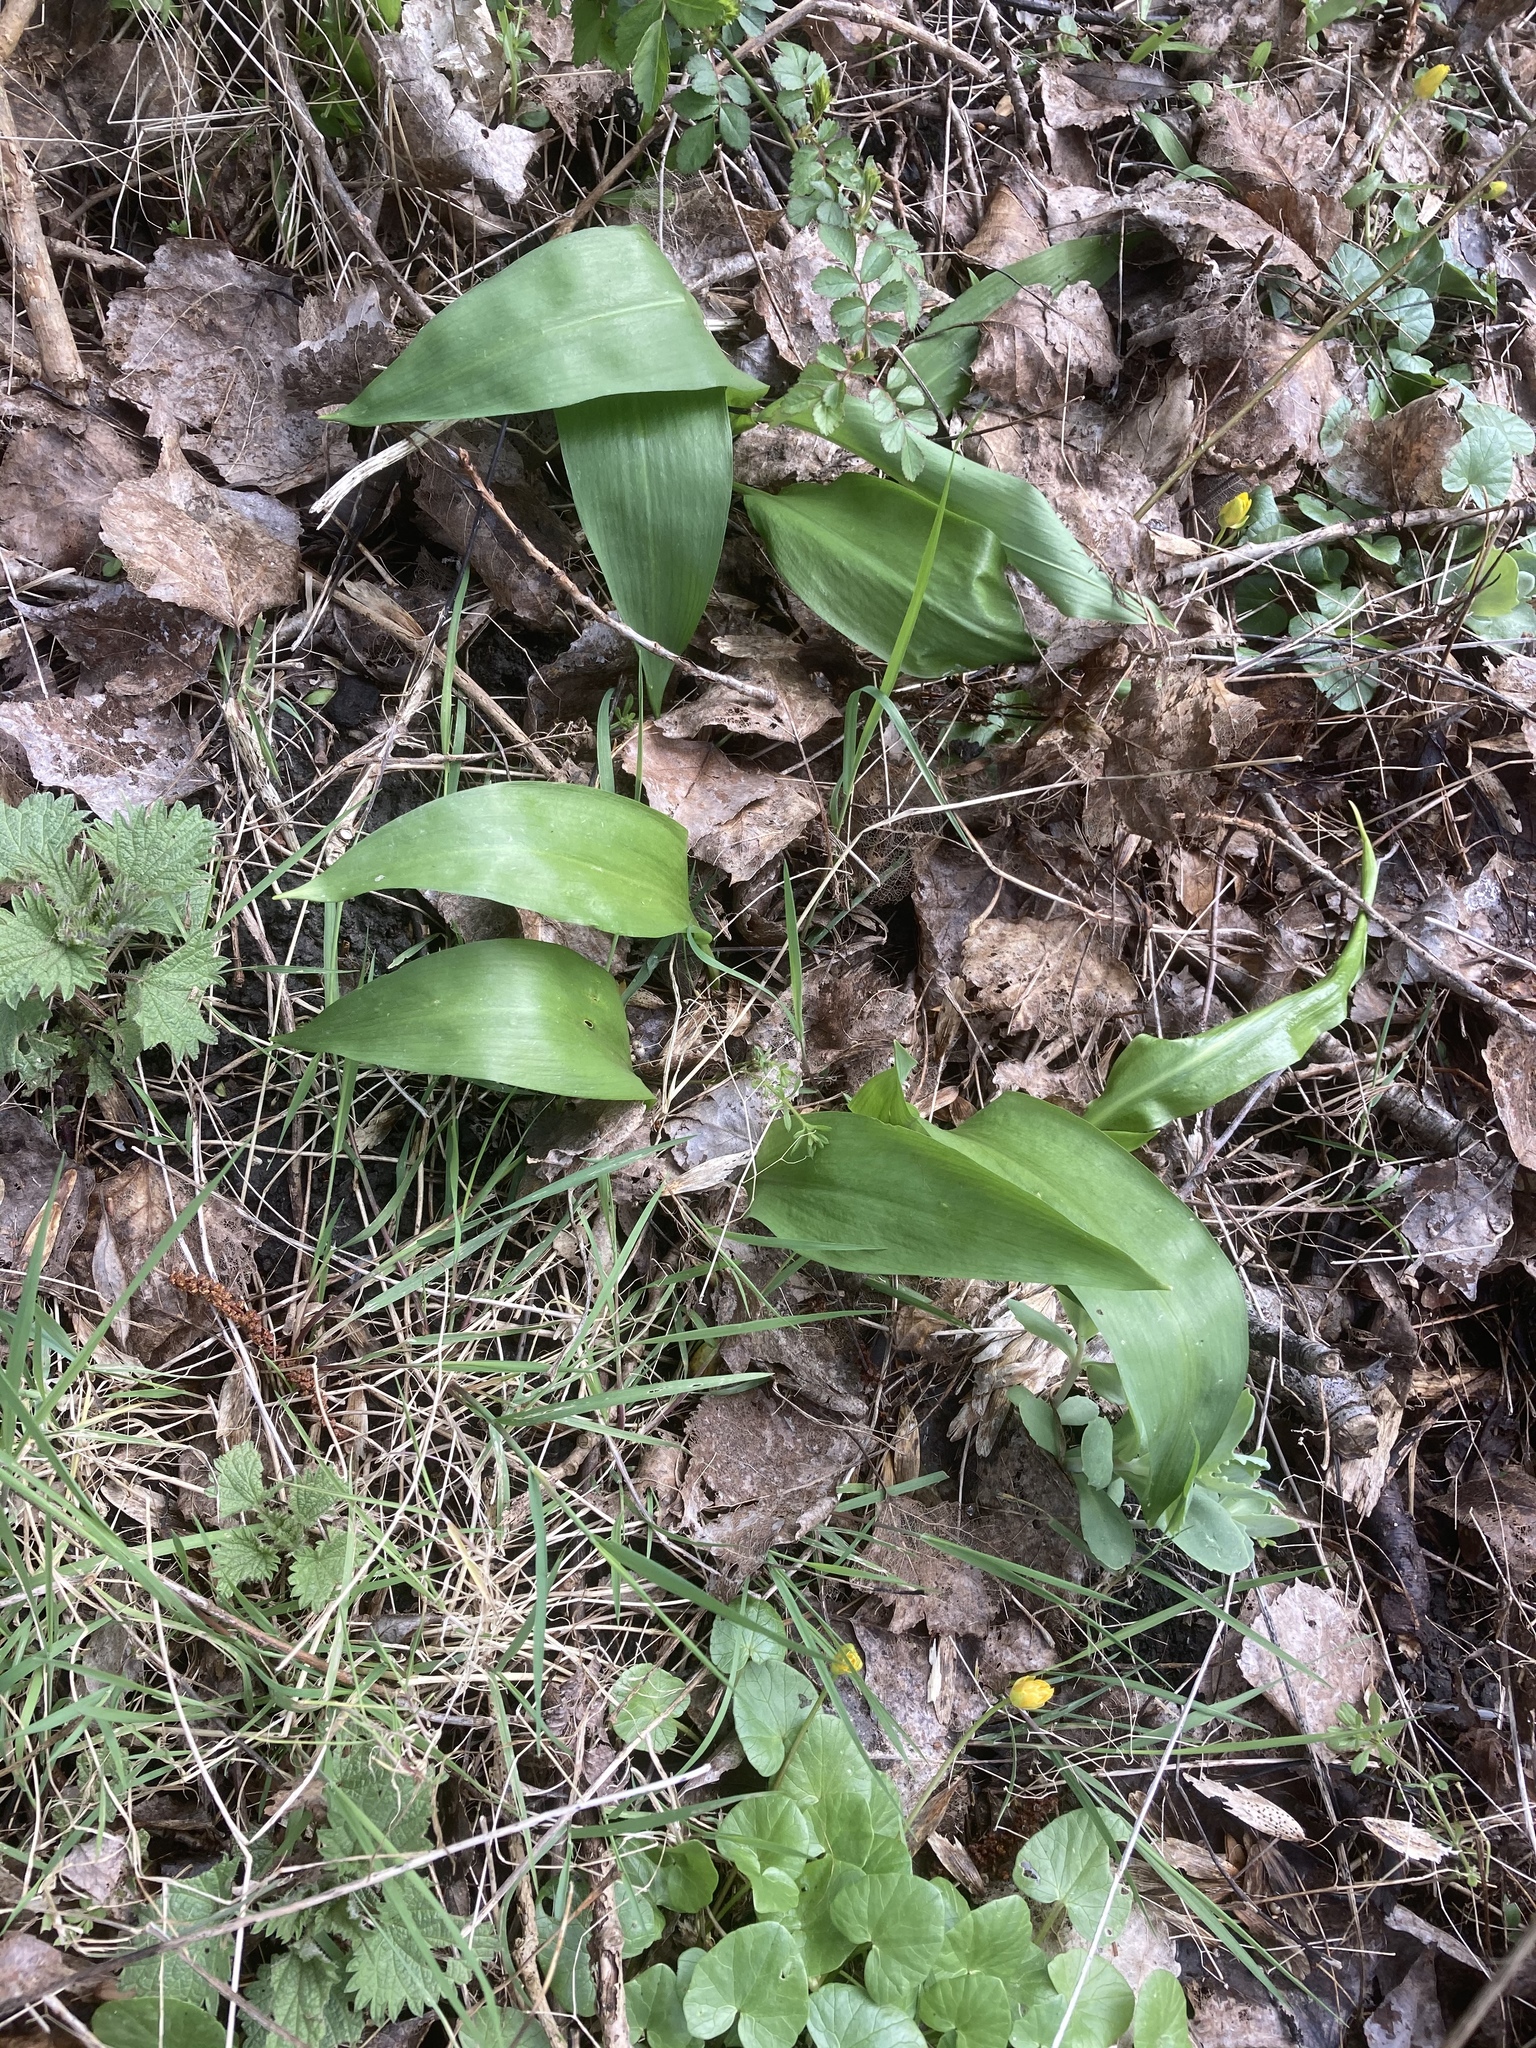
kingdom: Plantae
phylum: Tracheophyta
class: Liliopsida
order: Asparagales
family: Amaryllidaceae
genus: Allium
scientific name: Allium ursinum
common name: Ramsons
